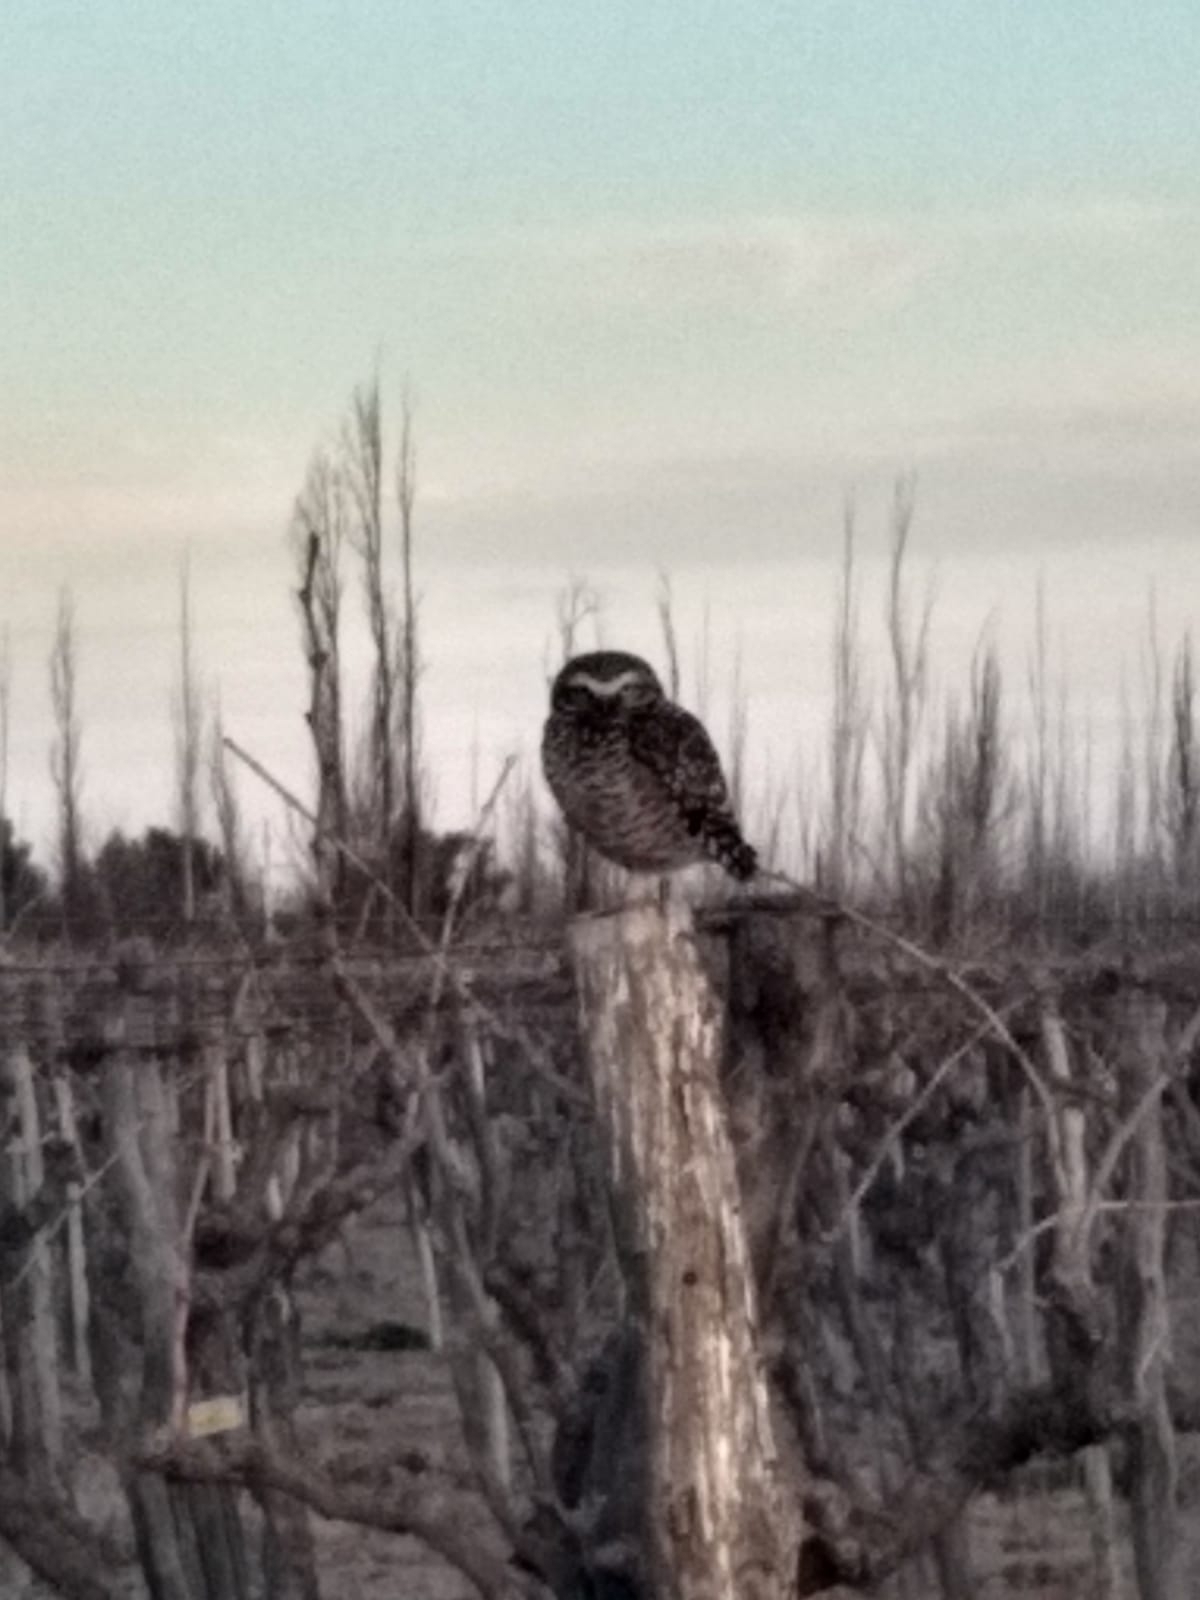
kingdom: Animalia
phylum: Chordata
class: Aves
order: Strigiformes
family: Strigidae
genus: Athene
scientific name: Athene cunicularia
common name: Burrowing owl
